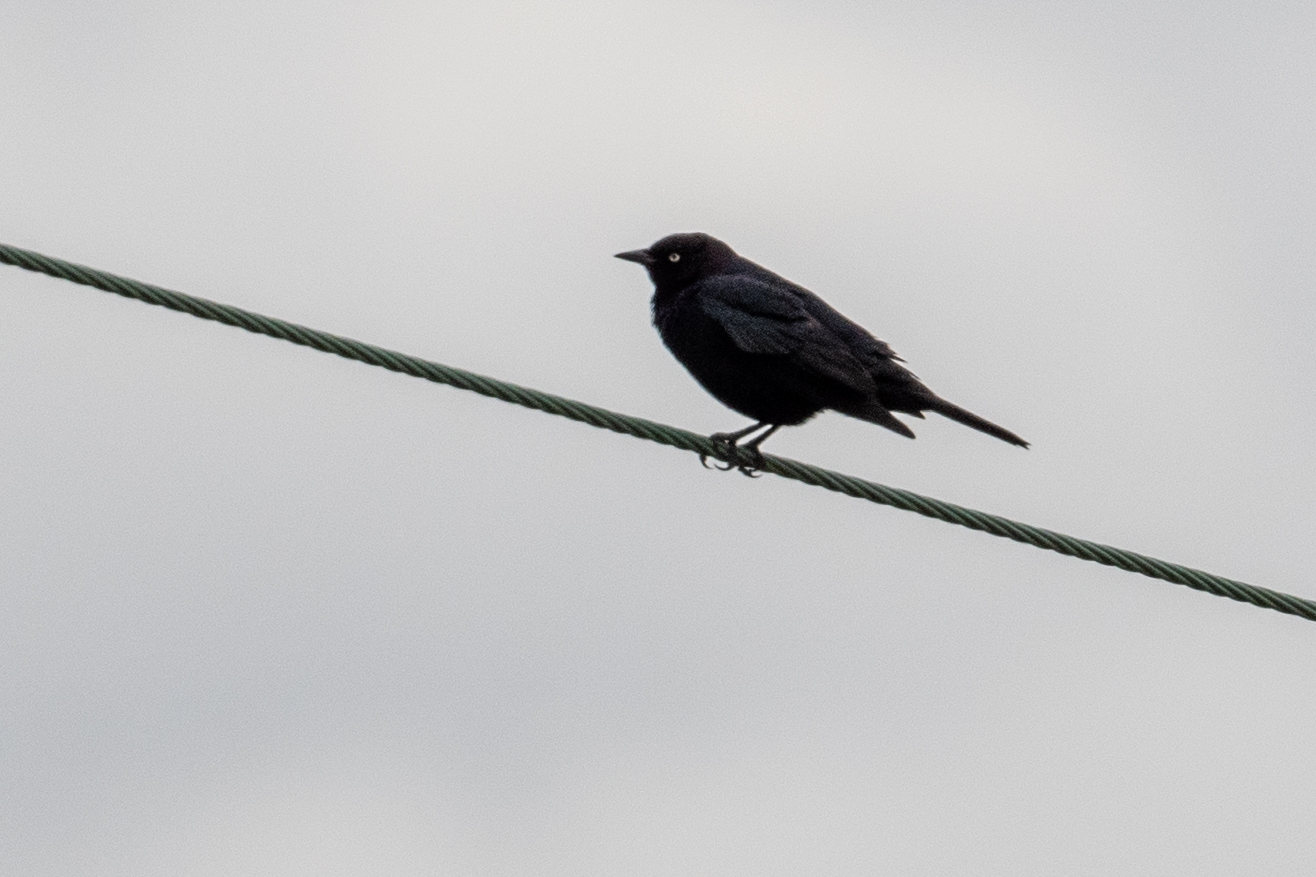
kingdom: Animalia
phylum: Chordata
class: Aves
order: Passeriformes
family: Icteridae
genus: Euphagus
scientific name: Euphagus cyanocephalus
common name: Brewer's blackbird
